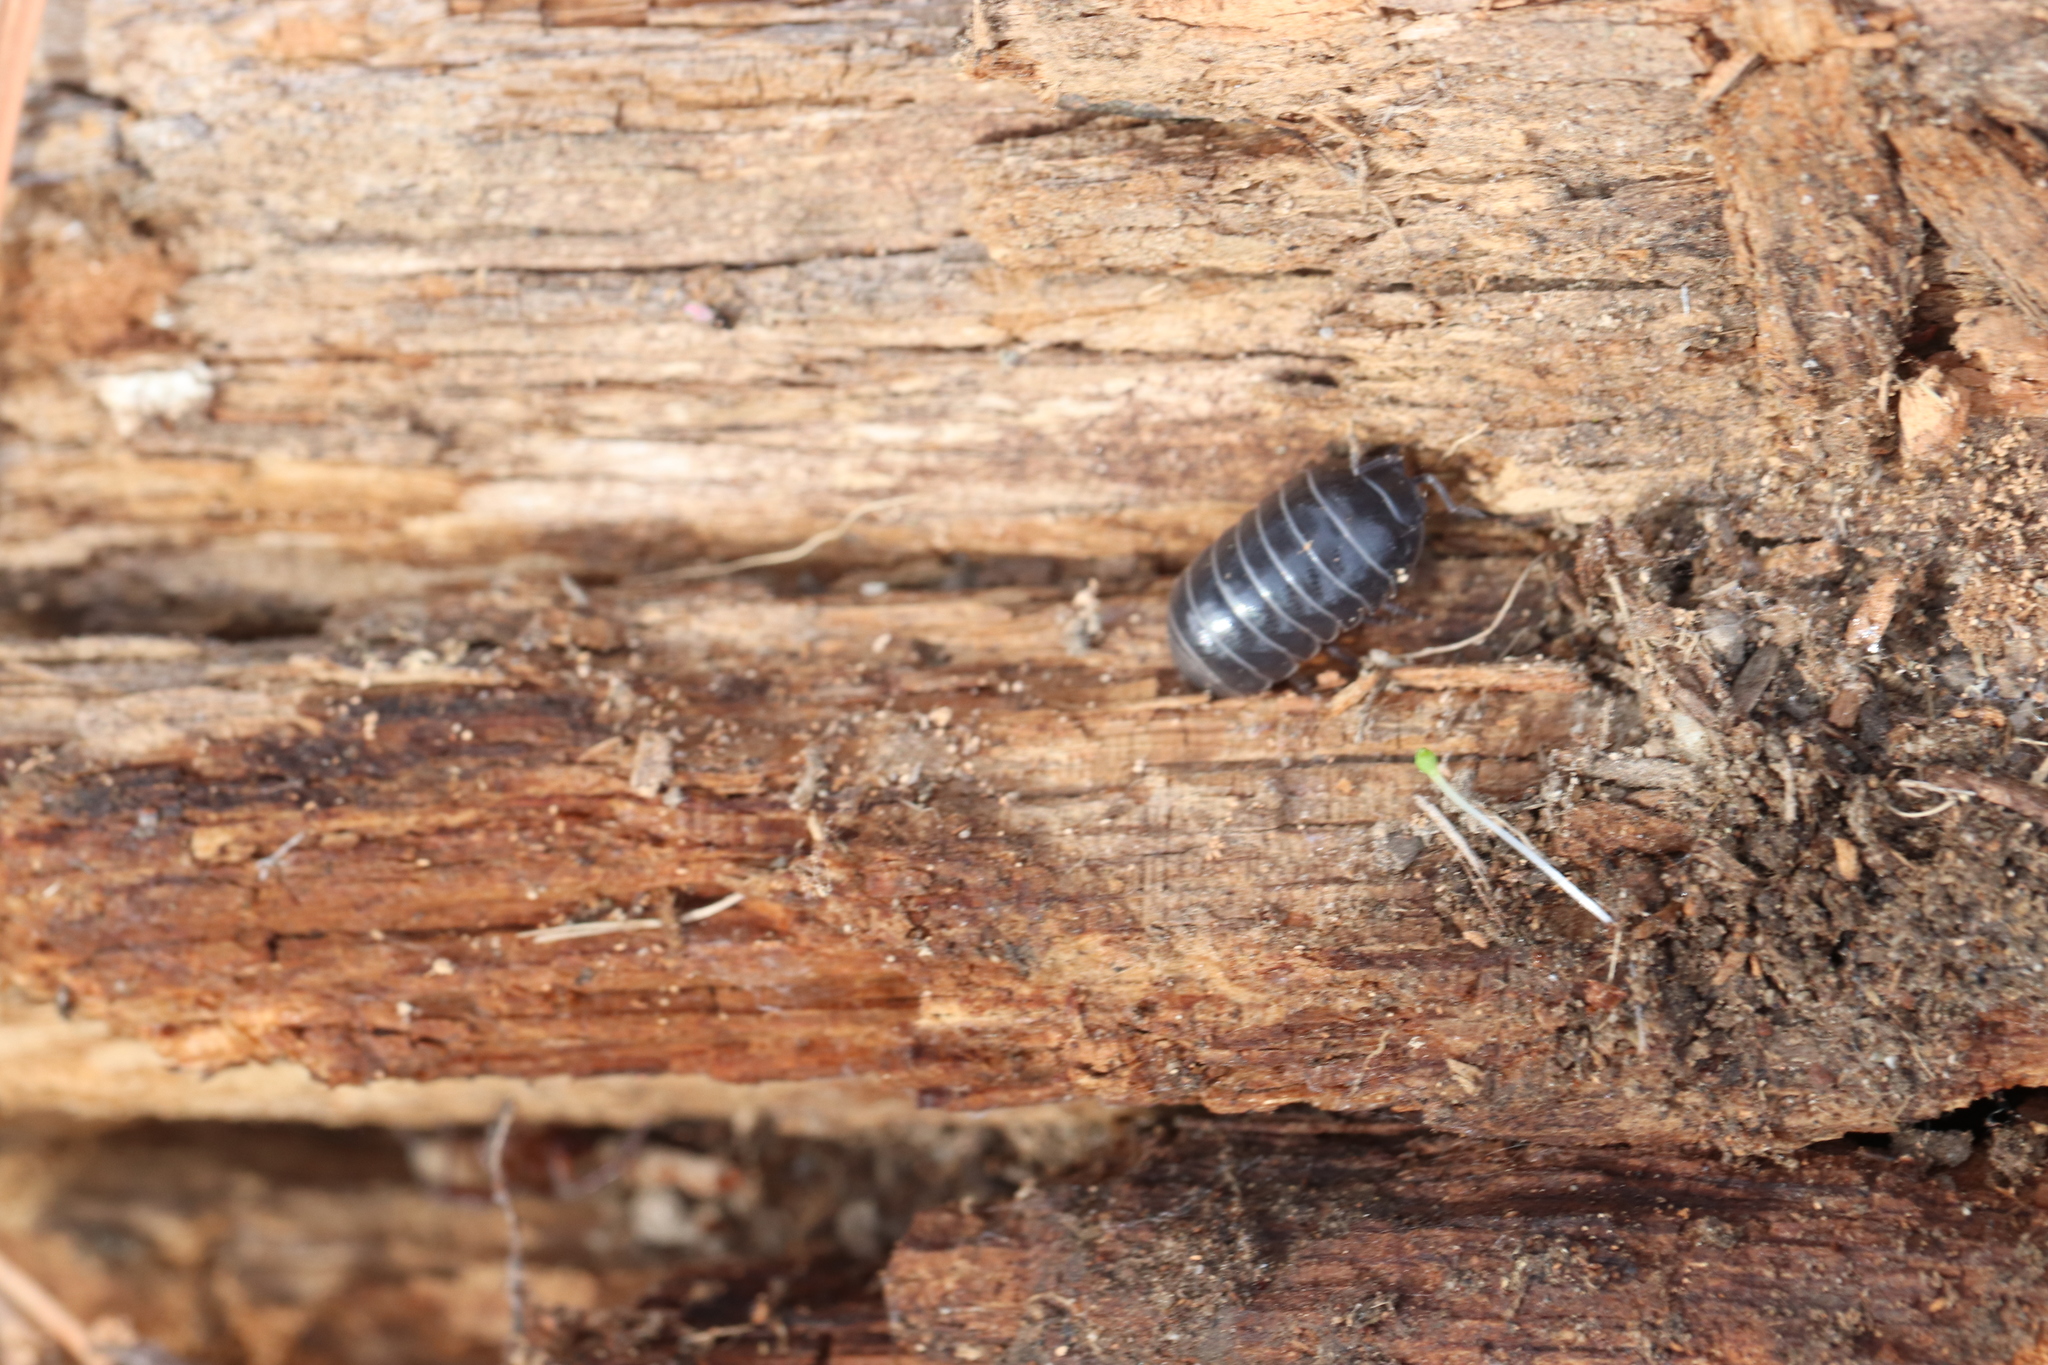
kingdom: Animalia
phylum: Arthropoda
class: Malacostraca
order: Isopoda
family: Armadillidiidae
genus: Armadillidium
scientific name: Armadillidium vulgare
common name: Common pill woodlouse
